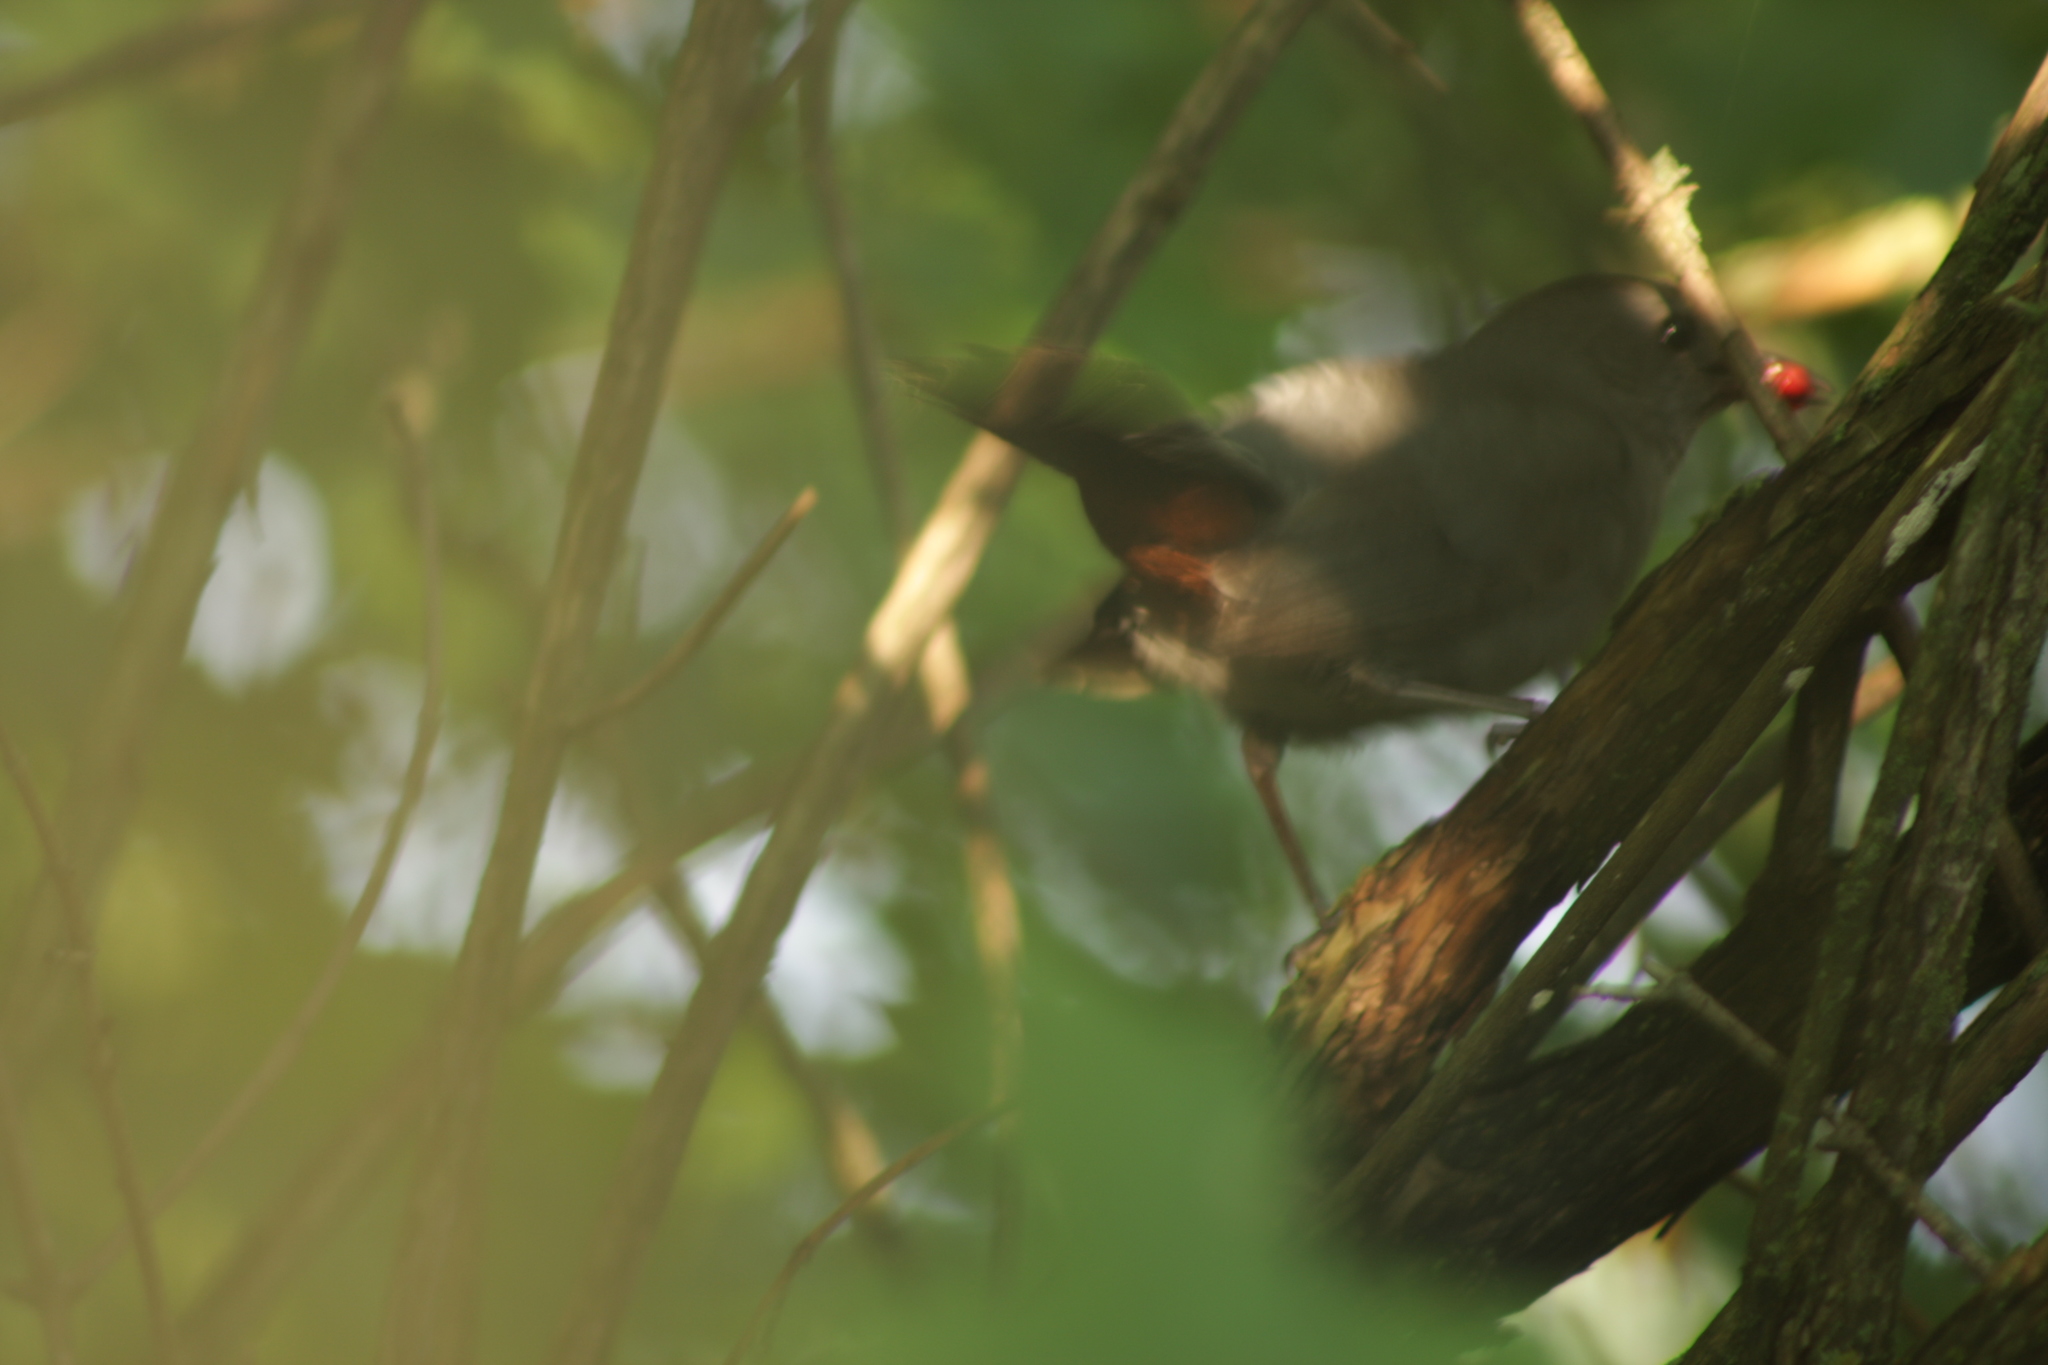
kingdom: Animalia
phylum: Chordata
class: Aves
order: Passeriformes
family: Mimidae
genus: Dumetella
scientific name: Dumetella carolinensis
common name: Gray catbird
